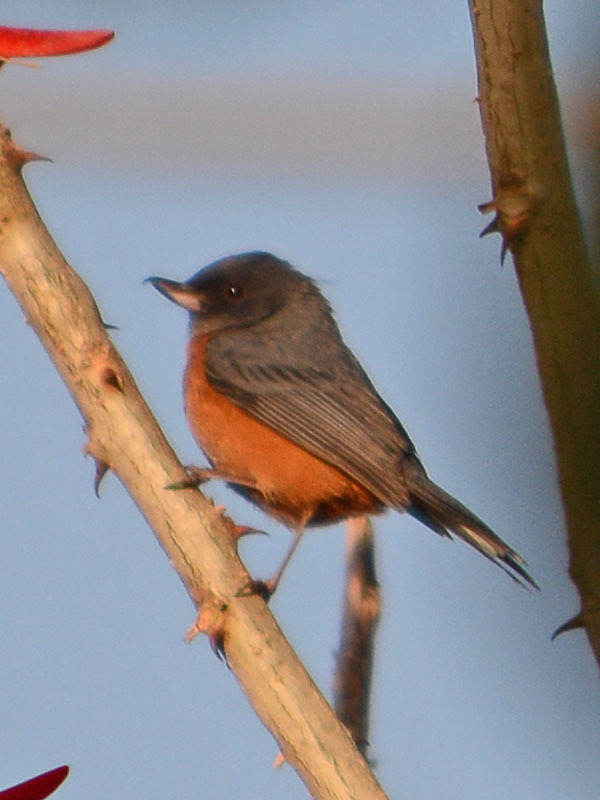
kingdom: Animalia
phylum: Chordata
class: Aves
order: Passeriformes
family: Thraupidae
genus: Diglossa
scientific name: Diglossa baritula
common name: Cinnamon-bellied flowerpiercer
